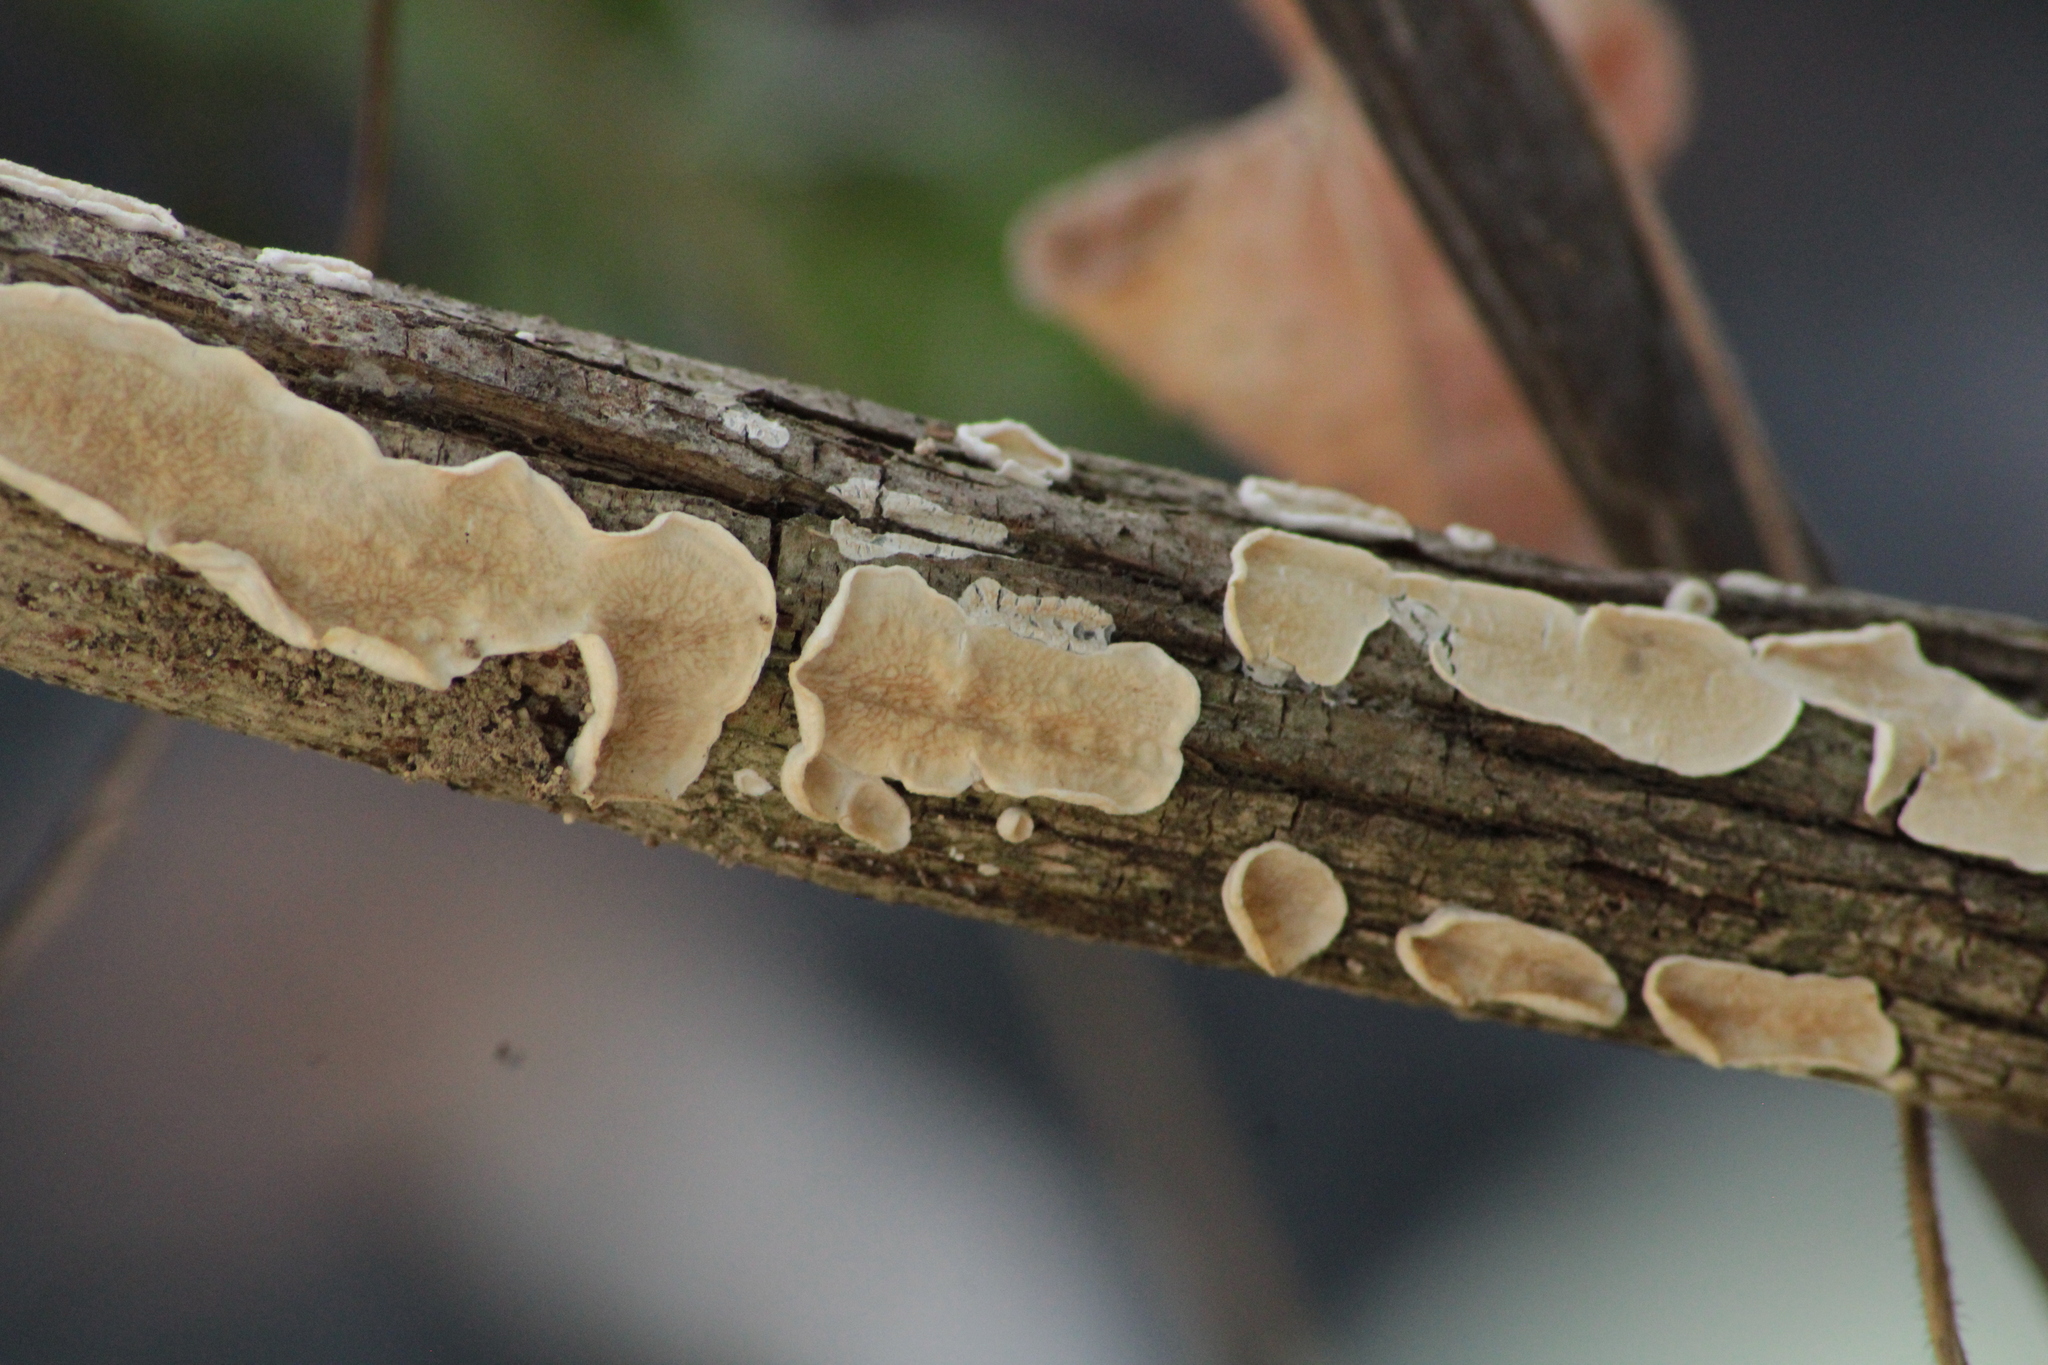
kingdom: Fungi
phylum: Basidiomycota
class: Agaricomycetes
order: Polyporales
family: Irpicaceae
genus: Byssomerulius
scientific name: Byssomerulius corium
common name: Netted crust
